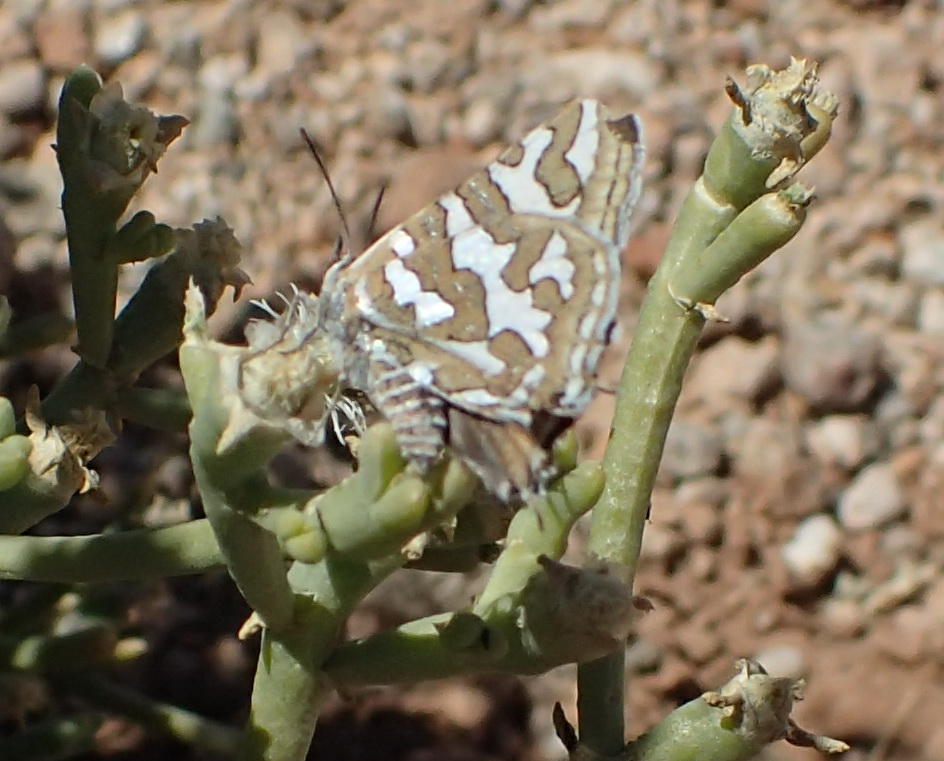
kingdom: Animalia
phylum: Arthropoda
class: Insecta
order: Lepidoptera
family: Lycaenidae
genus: Aphnaeus
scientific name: Aphnaeus namaquus
